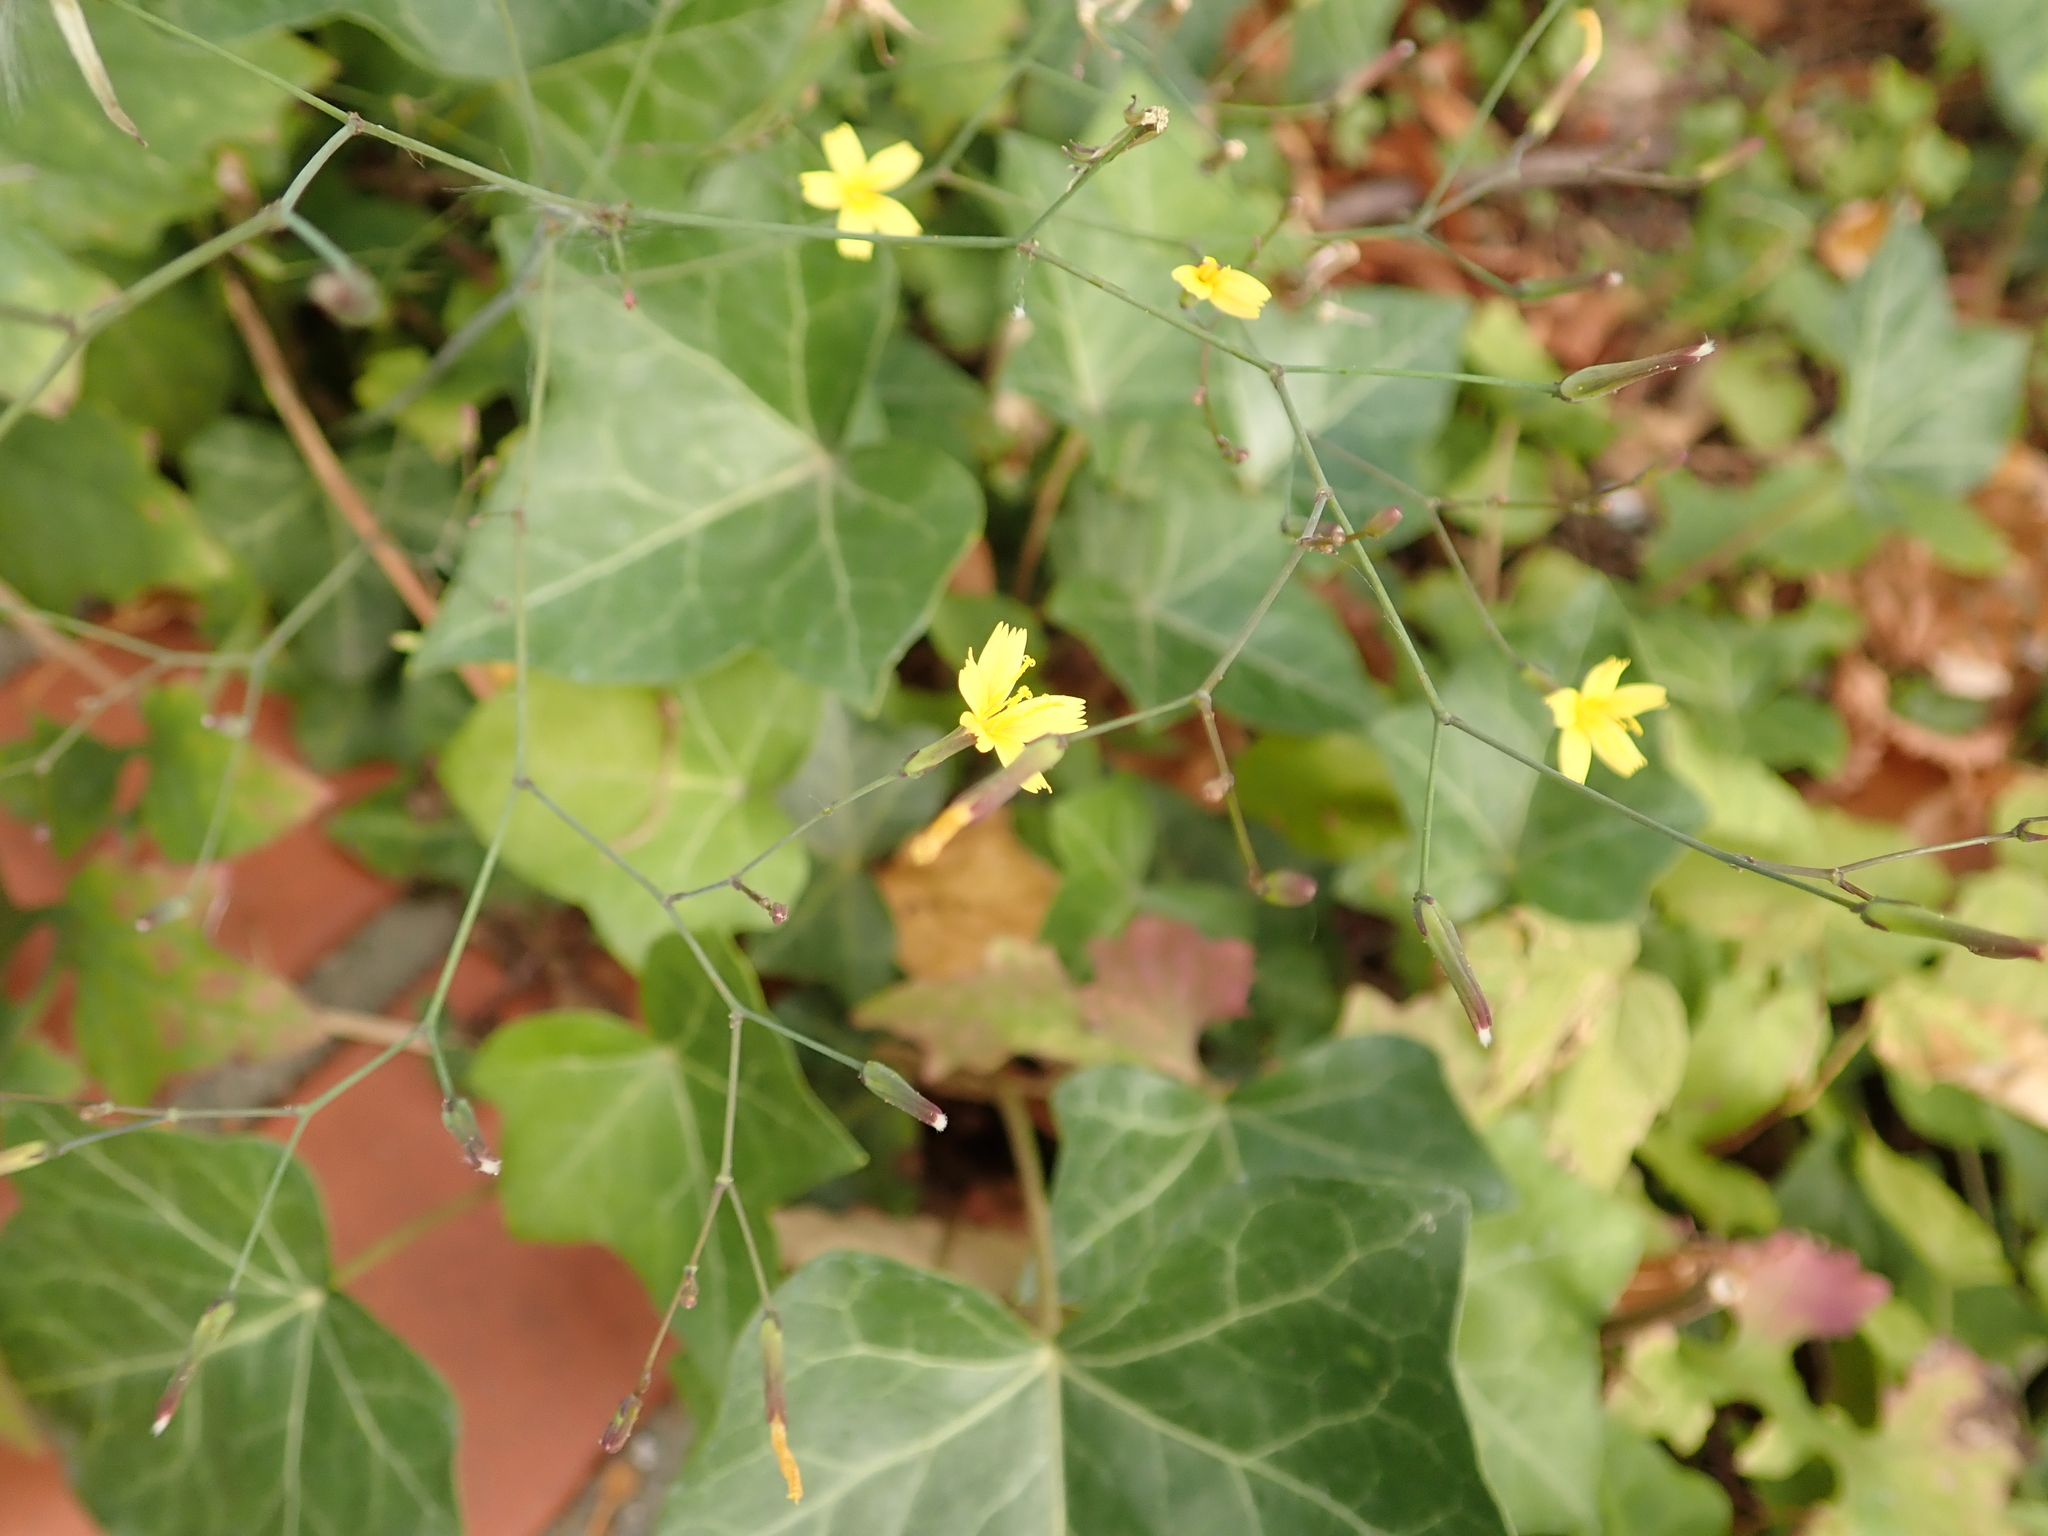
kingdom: Plantae
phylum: Tracheophyta
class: Magnoliopsida
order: Asterales
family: Asteraceae
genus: Mycelis
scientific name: Mycelis muralis
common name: Wall lettuce
